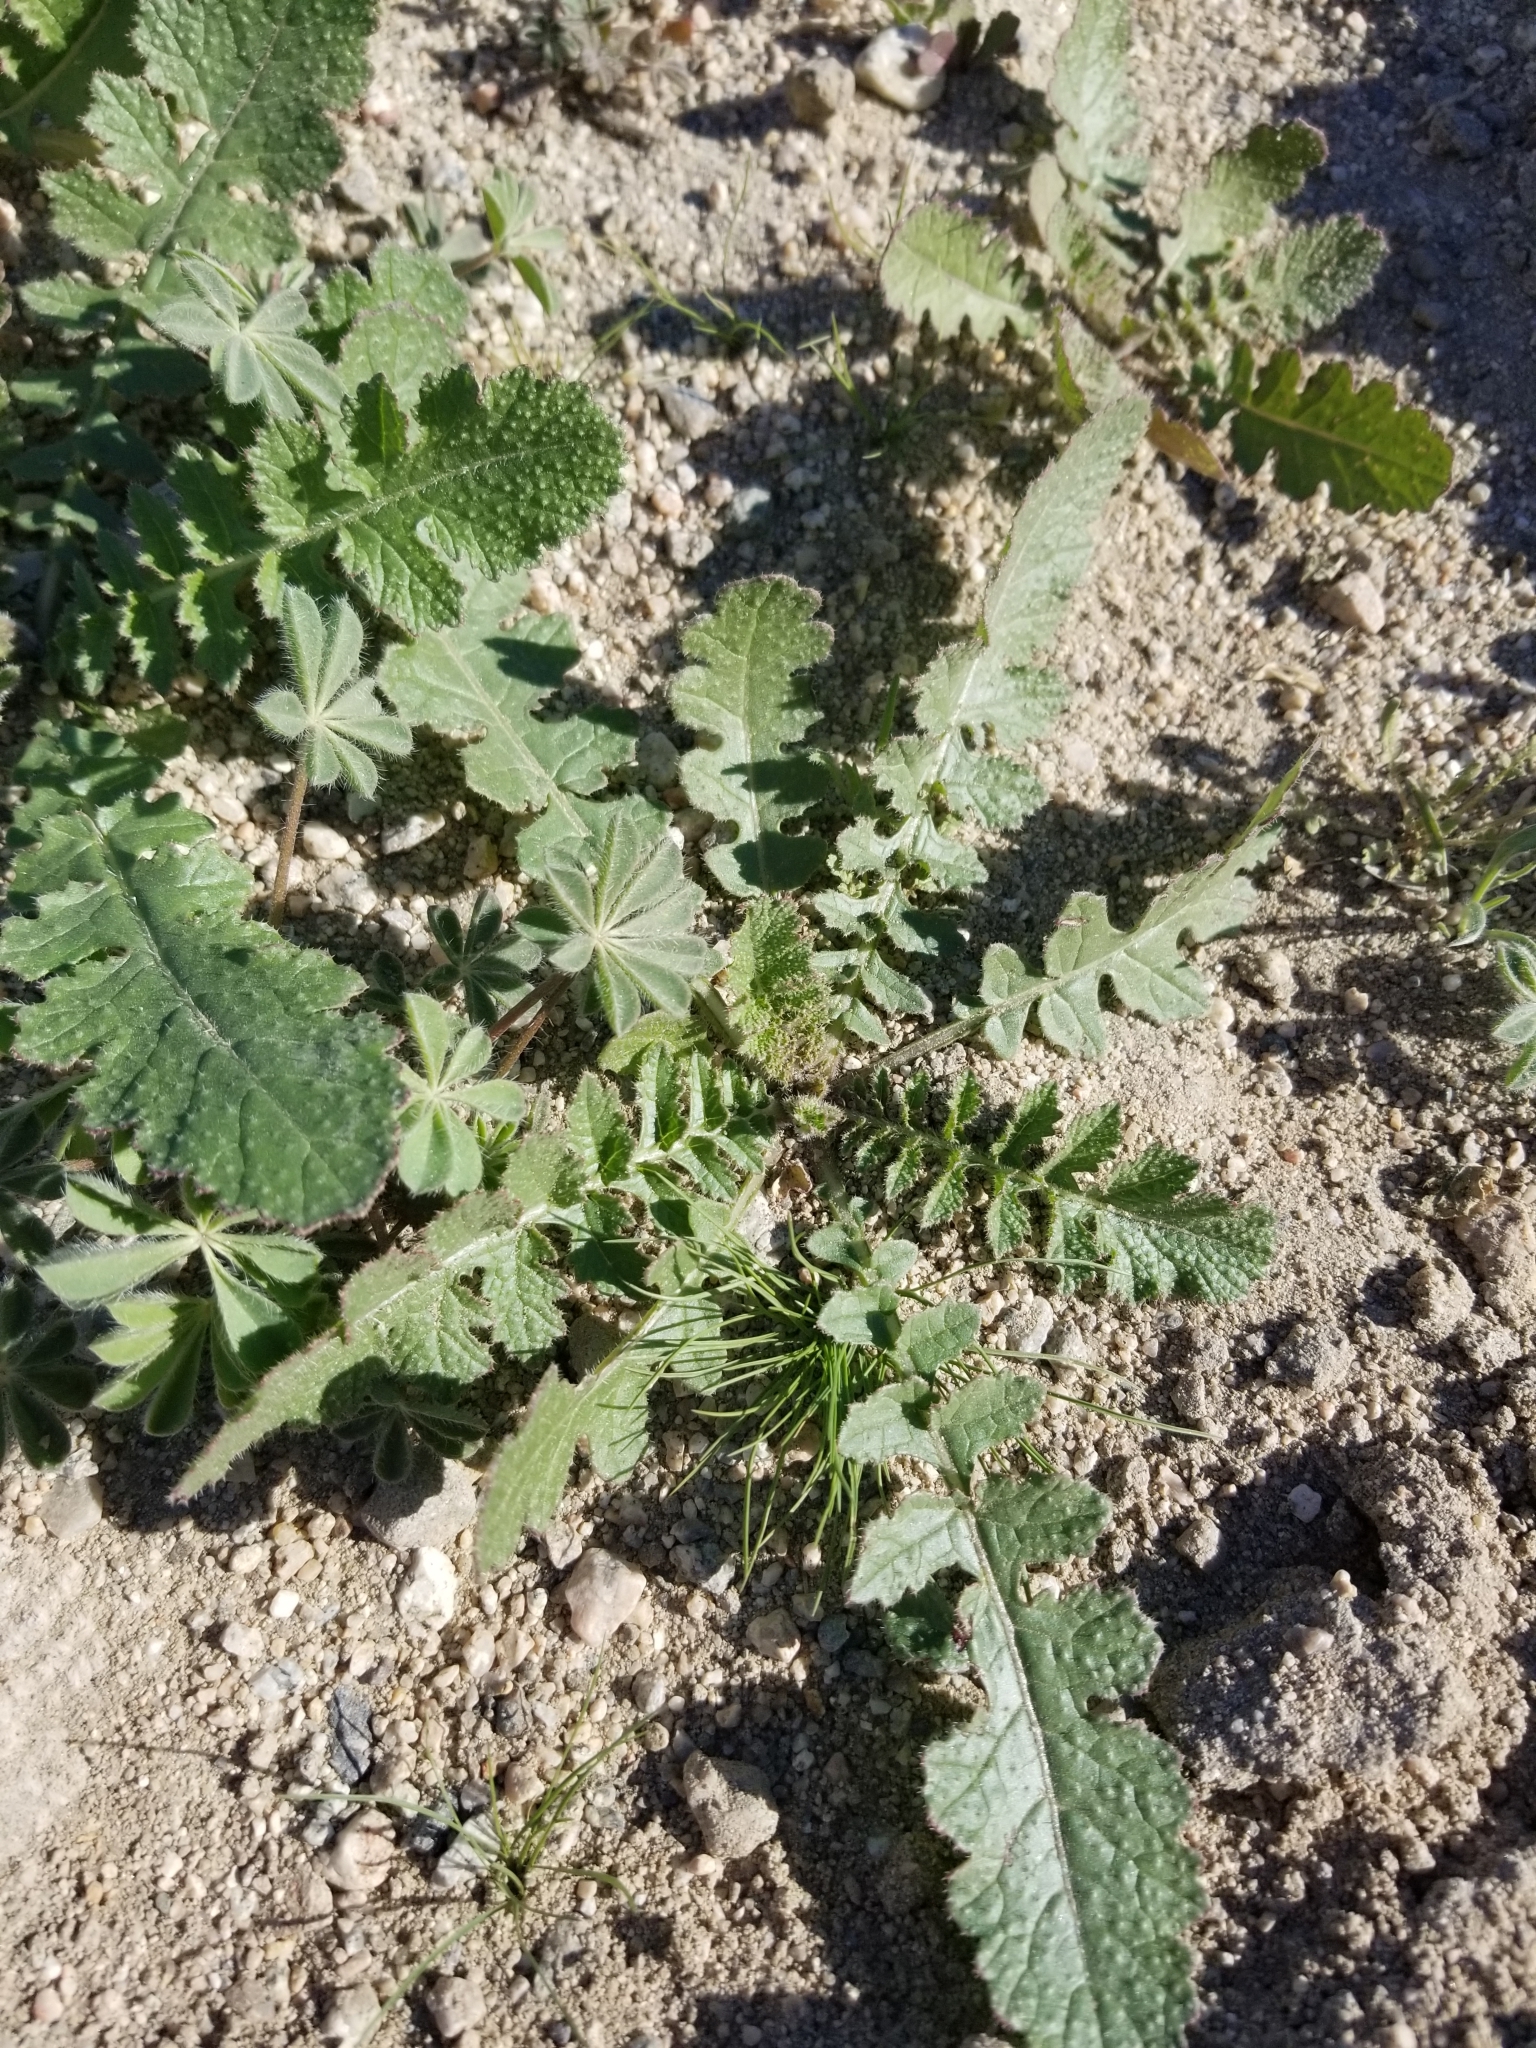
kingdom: Plantae
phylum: Tracheophyta
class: Magnoliopsida
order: Brassicales
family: Brassicaceae
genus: Brassica
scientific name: Brassica tournefortii
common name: Pale cabbage
